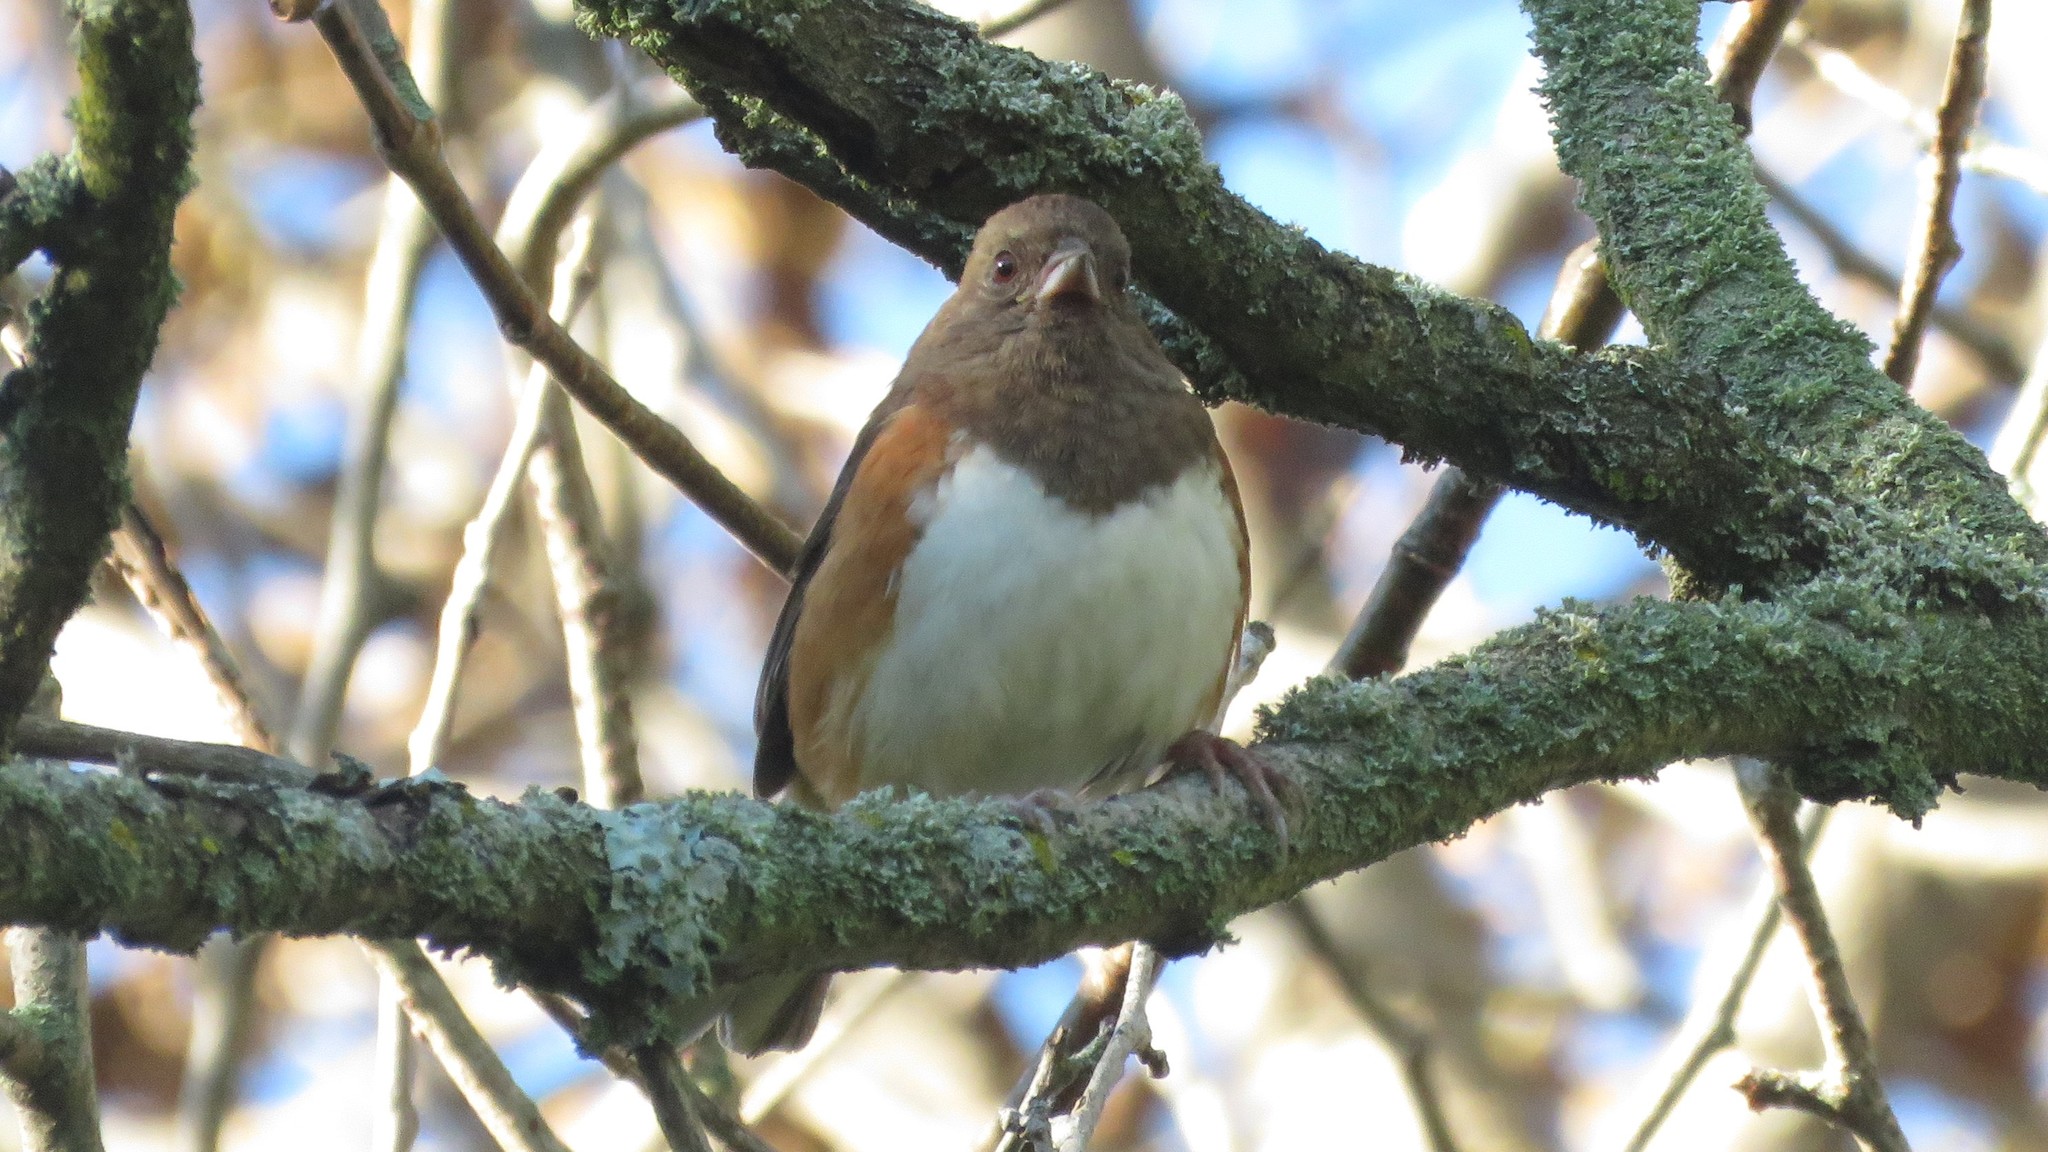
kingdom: Animalia
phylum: Chordata
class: Aves
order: Passeriformes
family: Passerellidae
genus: Pipilo
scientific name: Pipilo erythrophthalmus
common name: Eastern towhee
